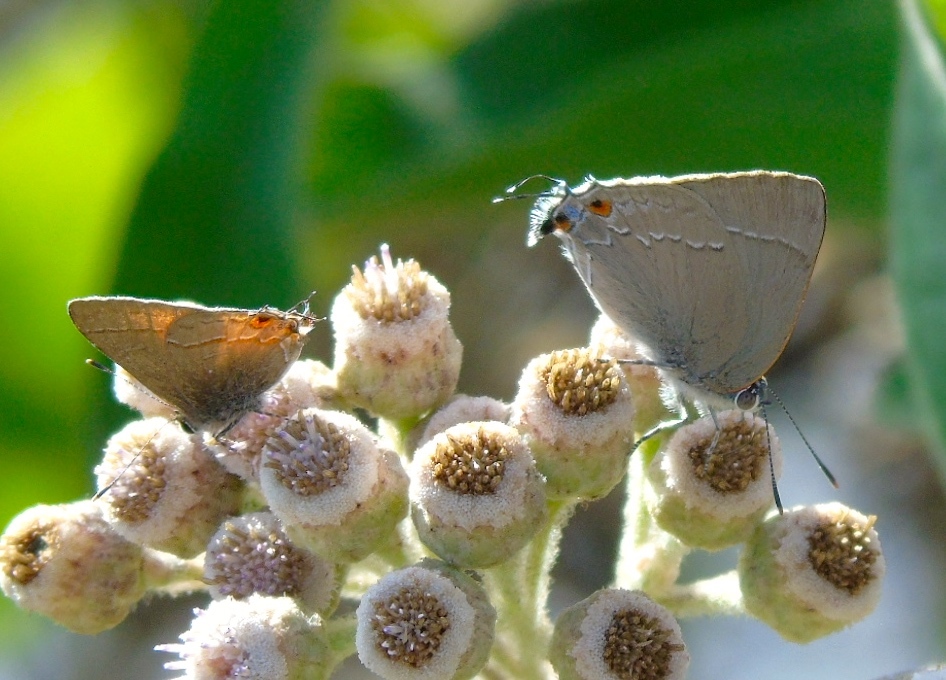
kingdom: Animalia
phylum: Arthropoda
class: Insecta
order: Lepidoptera
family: Lycaenidae
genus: Thecla
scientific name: Thecla marius
